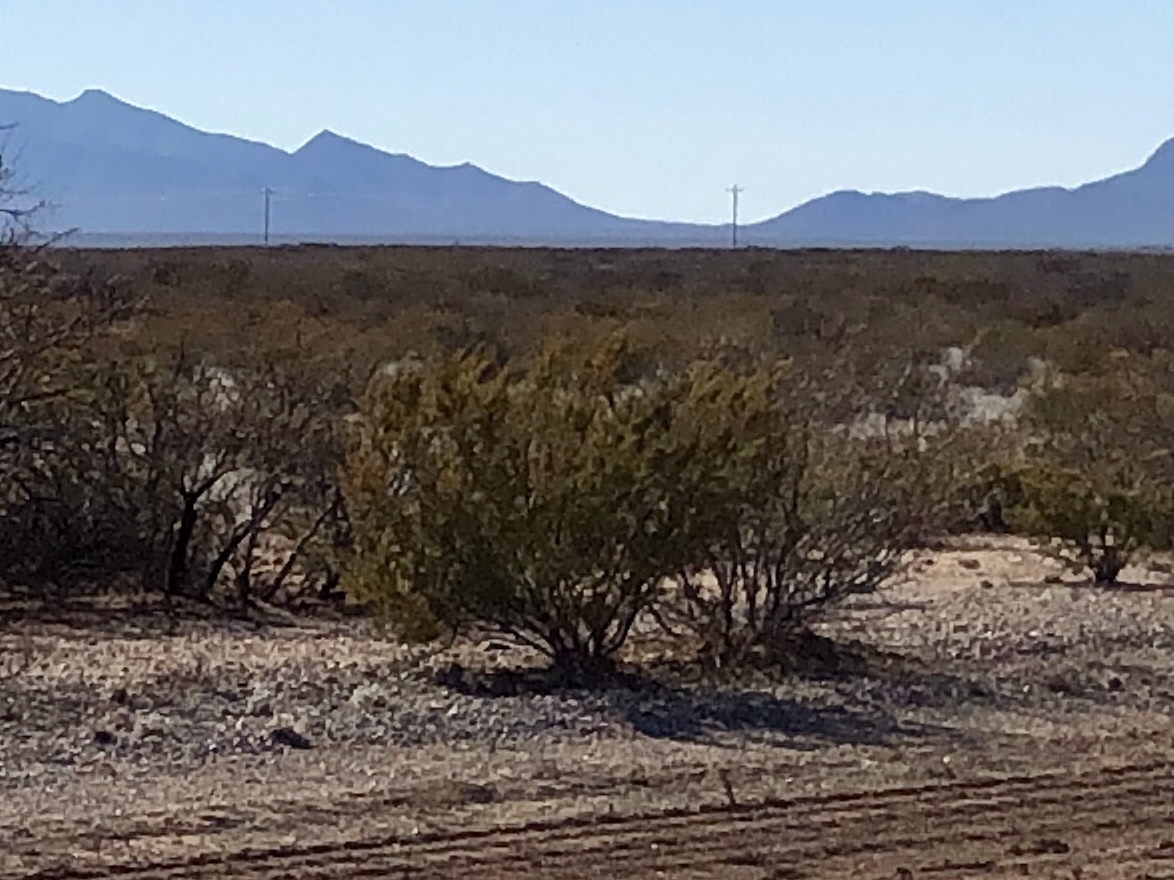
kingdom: Plantae
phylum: Tracheophyta
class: Magnoliopsida
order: Zygophyllales
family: Zygophyllaceae
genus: Larrea
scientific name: Larrea tridentata
